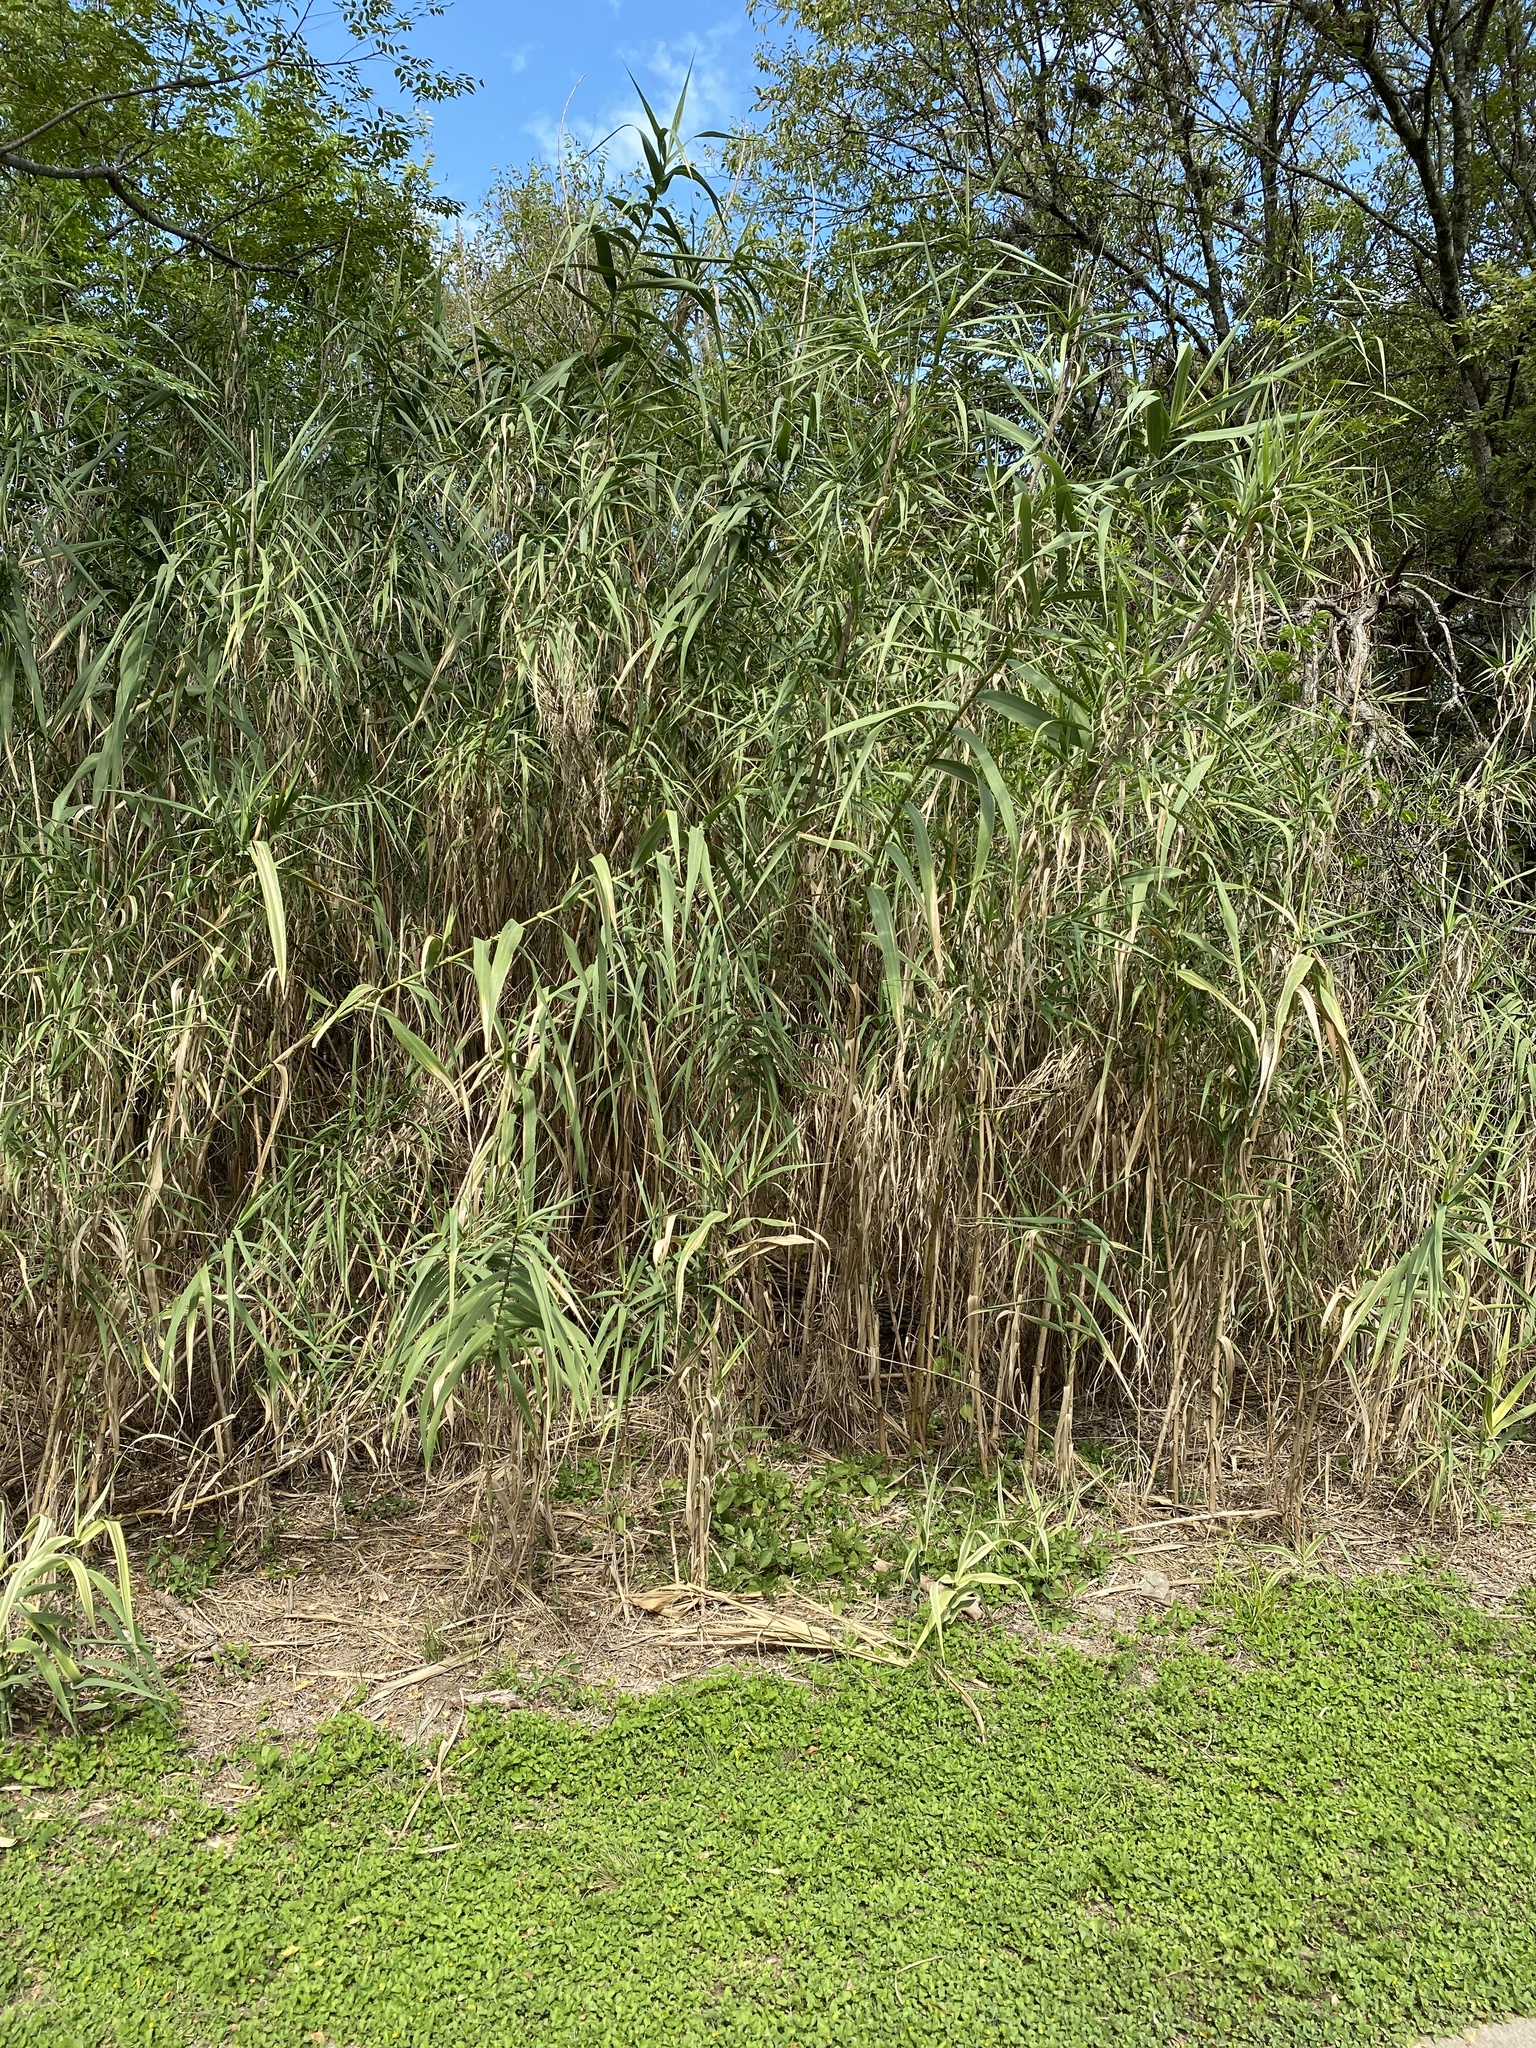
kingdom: Plantae
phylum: Tracheophyta
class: Liliopsida
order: Poales
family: Poaceae
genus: Arundo
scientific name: Arundo donax
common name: Giant reed
